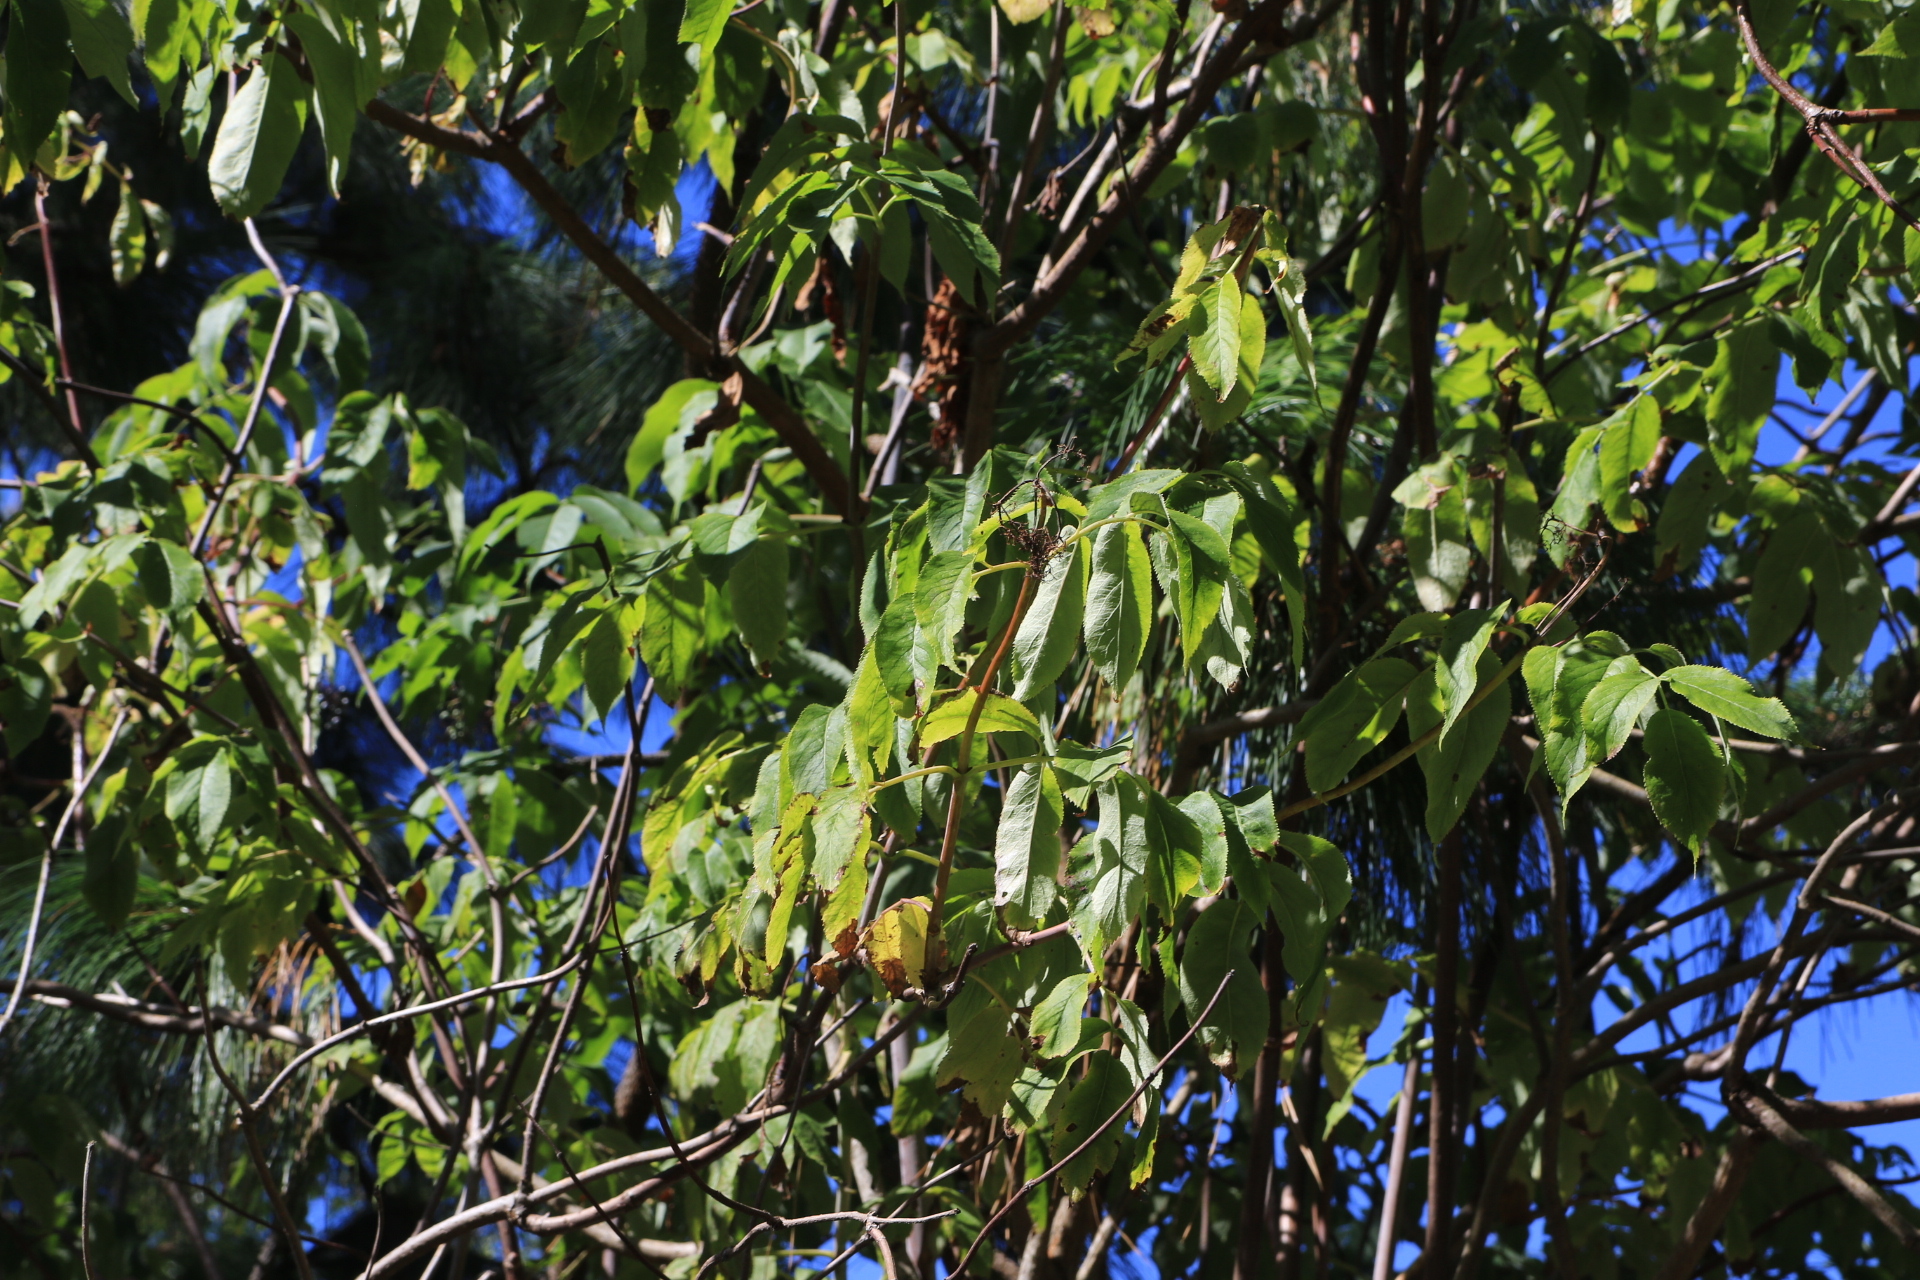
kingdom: Plantae
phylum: Tracheophyta
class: Magnoliopsida
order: Dipsacales
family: Viburnaceae
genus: Sambucus
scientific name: Sambucus cerulea
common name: Blue elder
